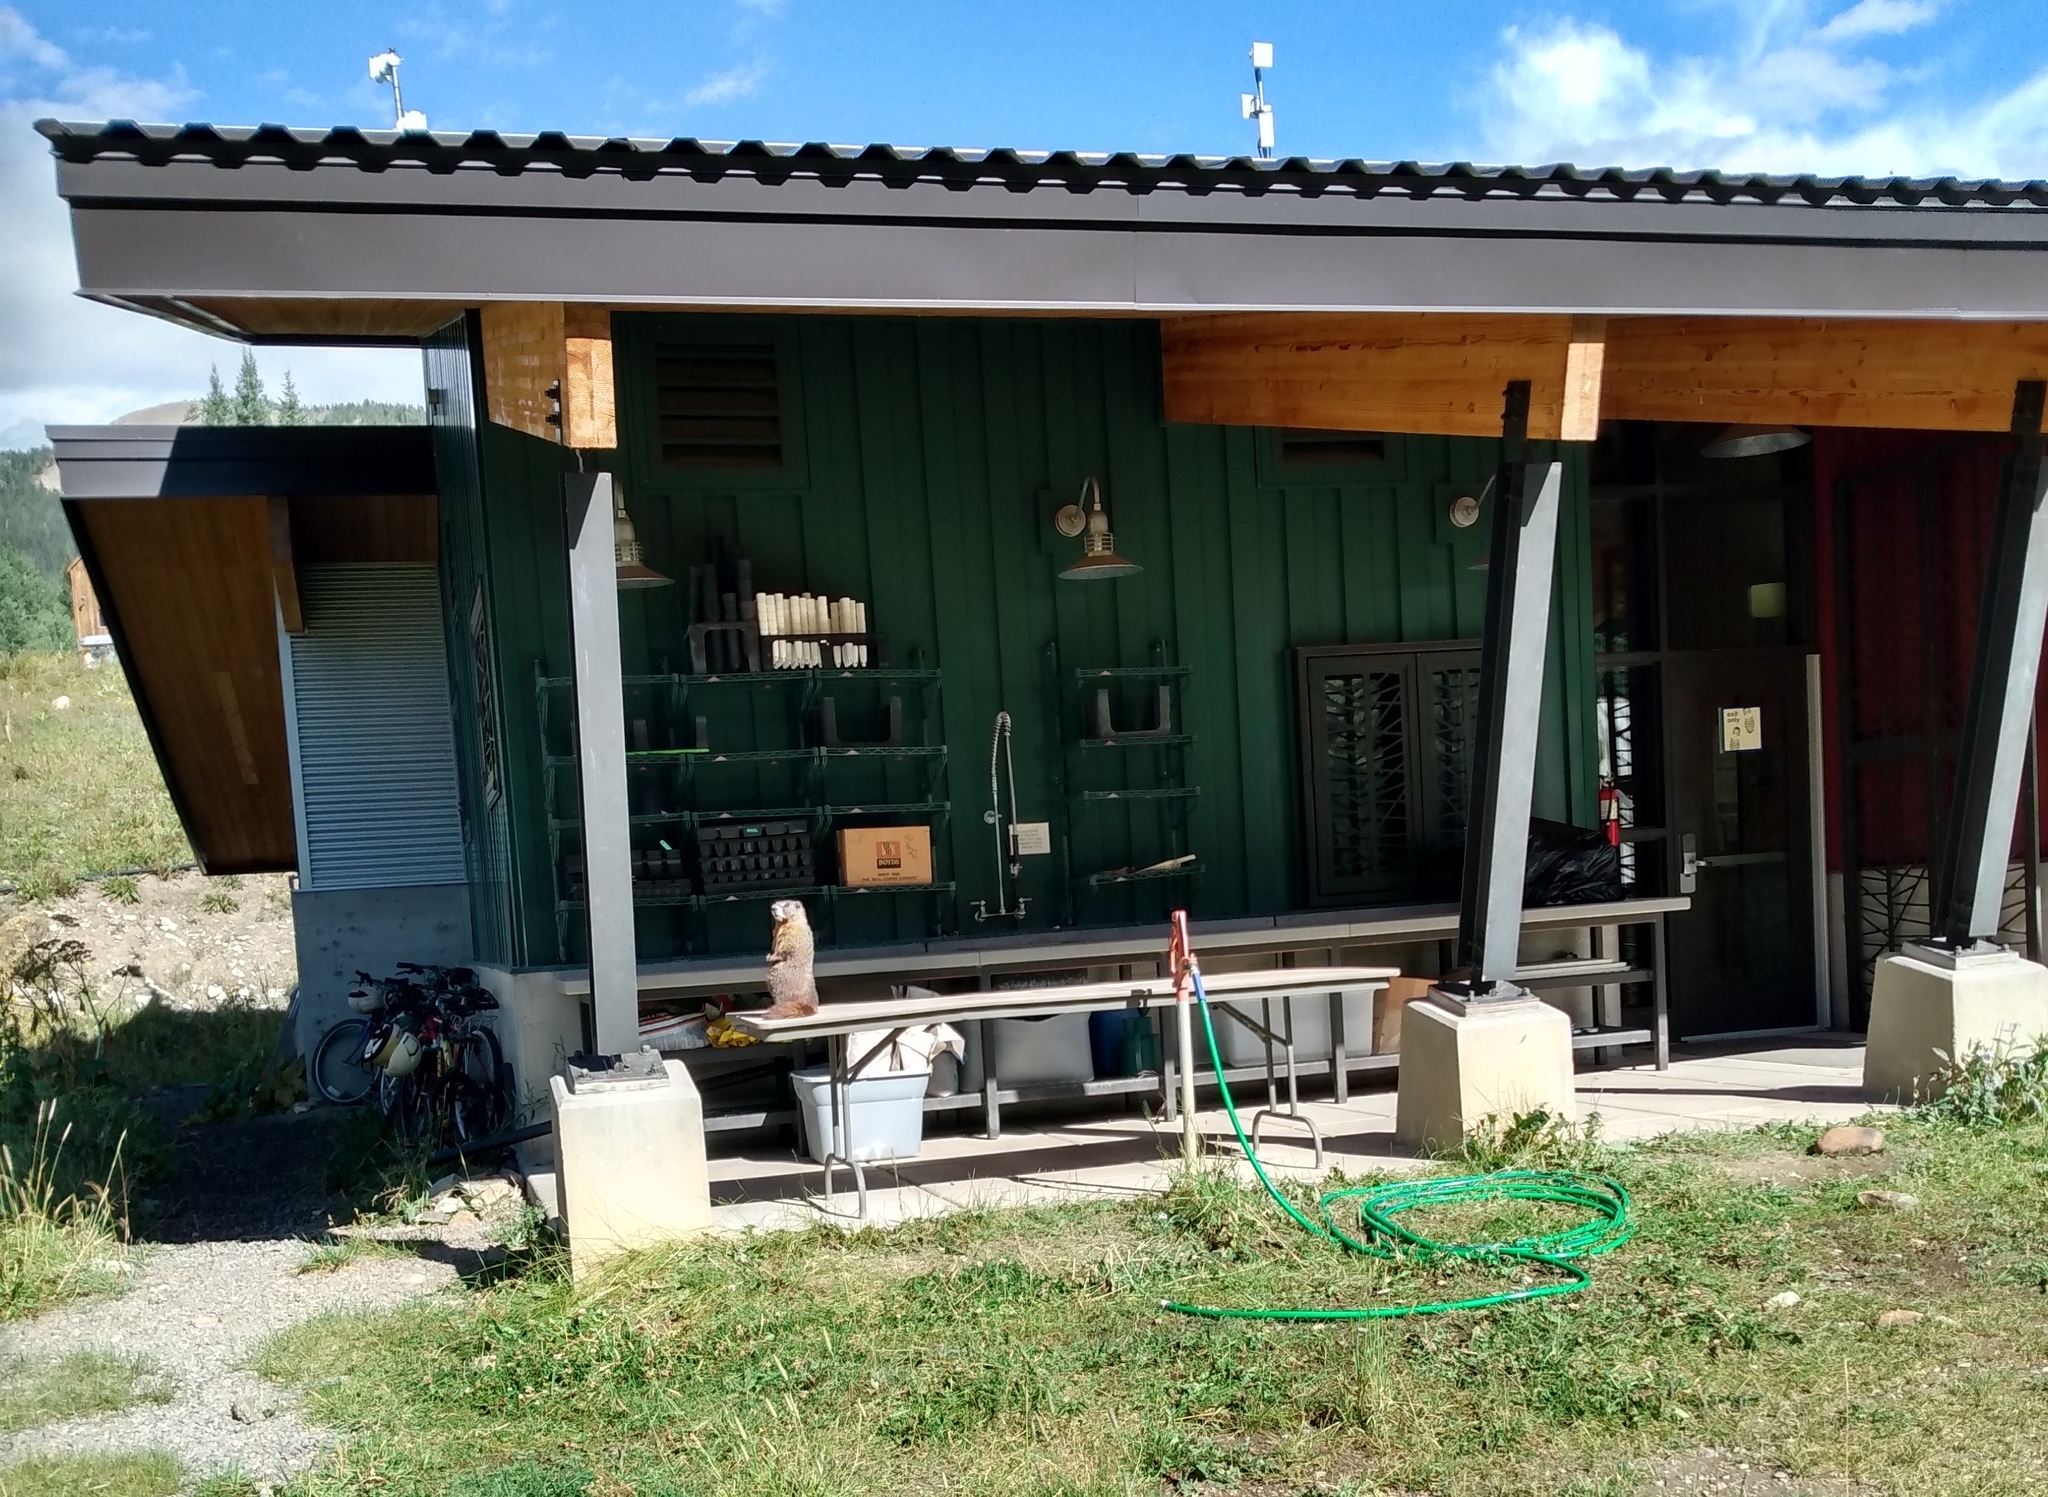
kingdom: Animalia
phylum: Chordata
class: Mammalia
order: Rodentia
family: Sciuridae
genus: Marmota
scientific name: Marmota flaviventris
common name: Yellow-bellied marmot
